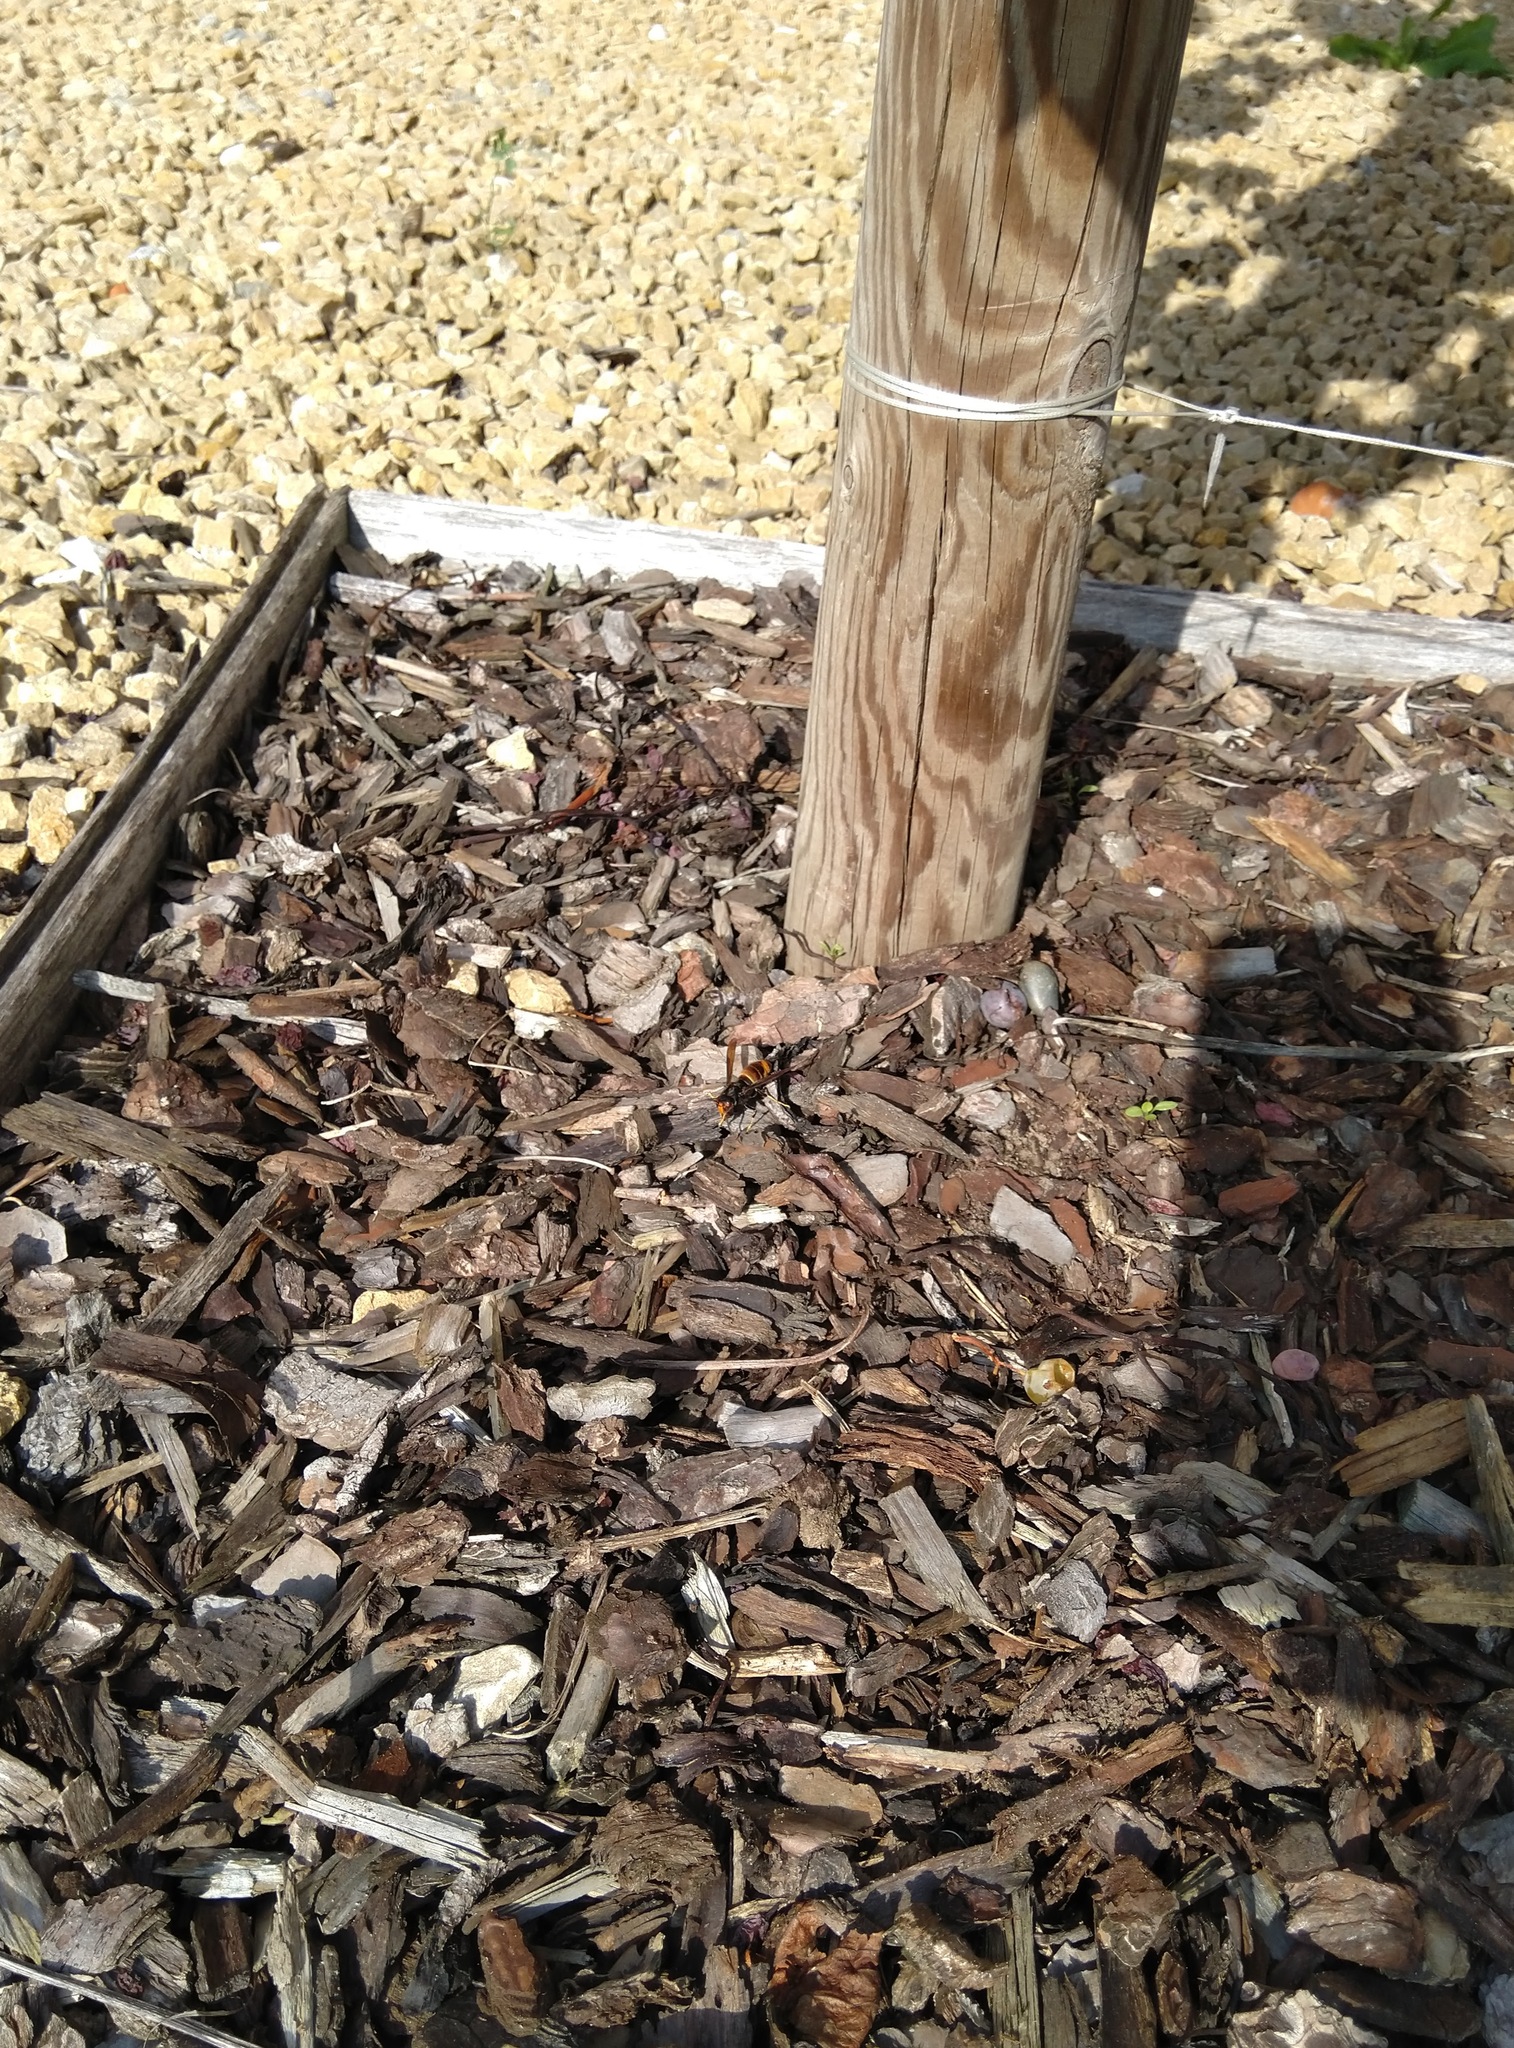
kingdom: Animalia
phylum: Arthropoda
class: Insecta
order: Hymenoptera
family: Vespidae
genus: Vespa
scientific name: Vespa velutina
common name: Asian hornet
